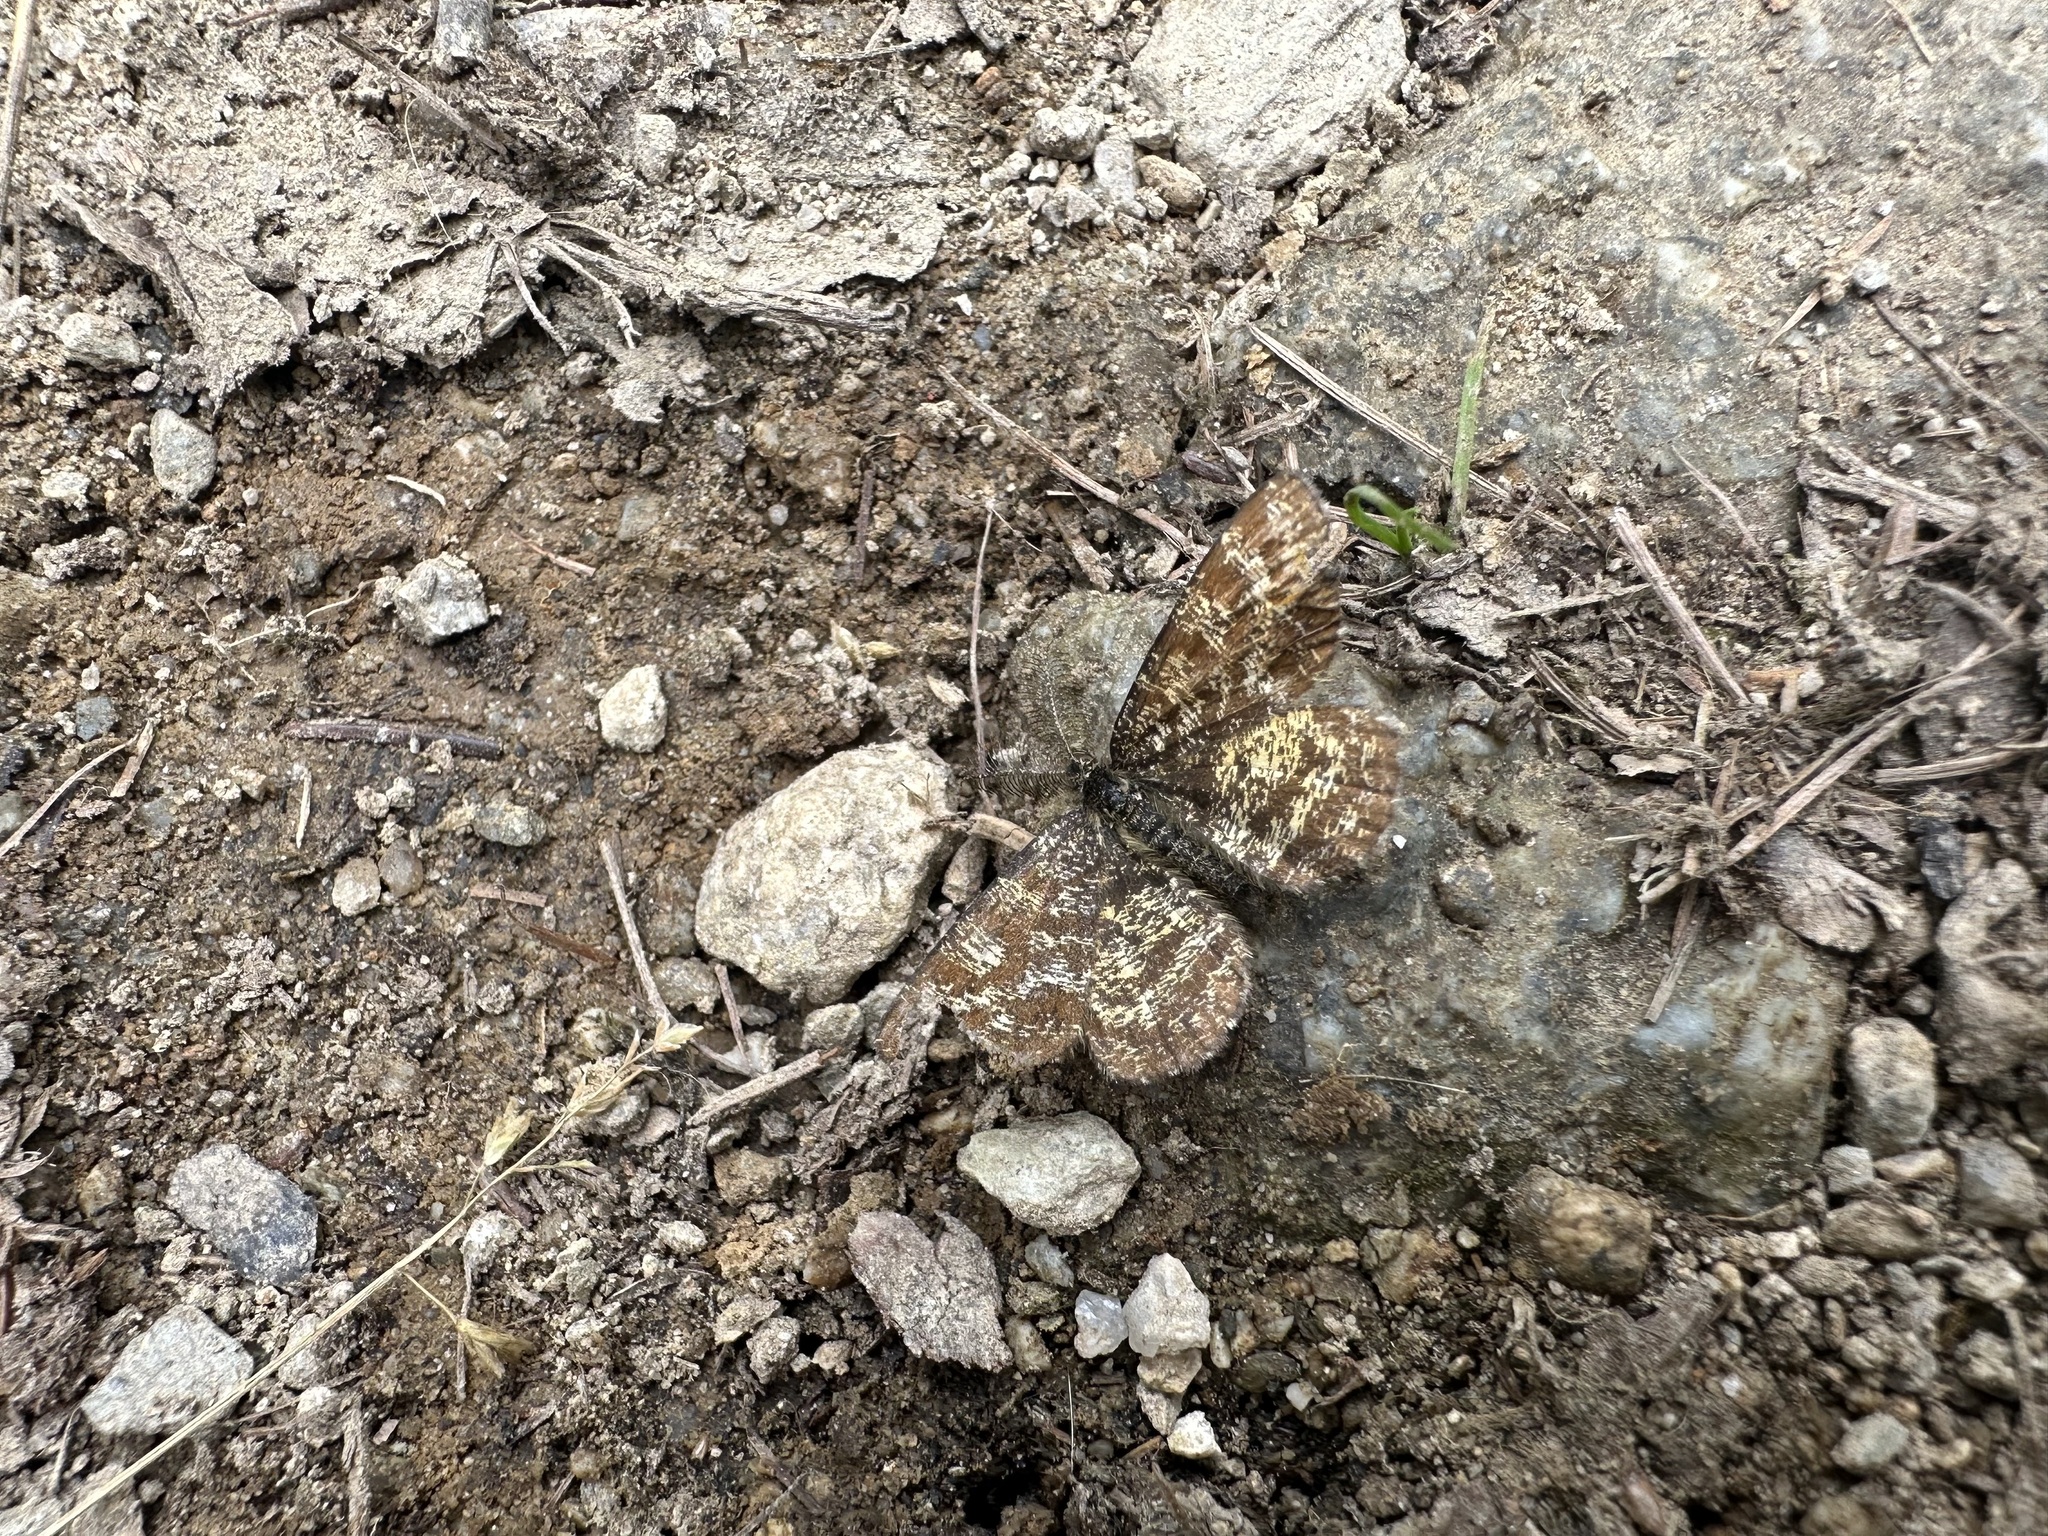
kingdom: Animalia
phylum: Arthropoda
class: Insecta
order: Lepidoptera
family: Geometridae
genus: Ematurga
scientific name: Ematurga atomaria
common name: Common heath
